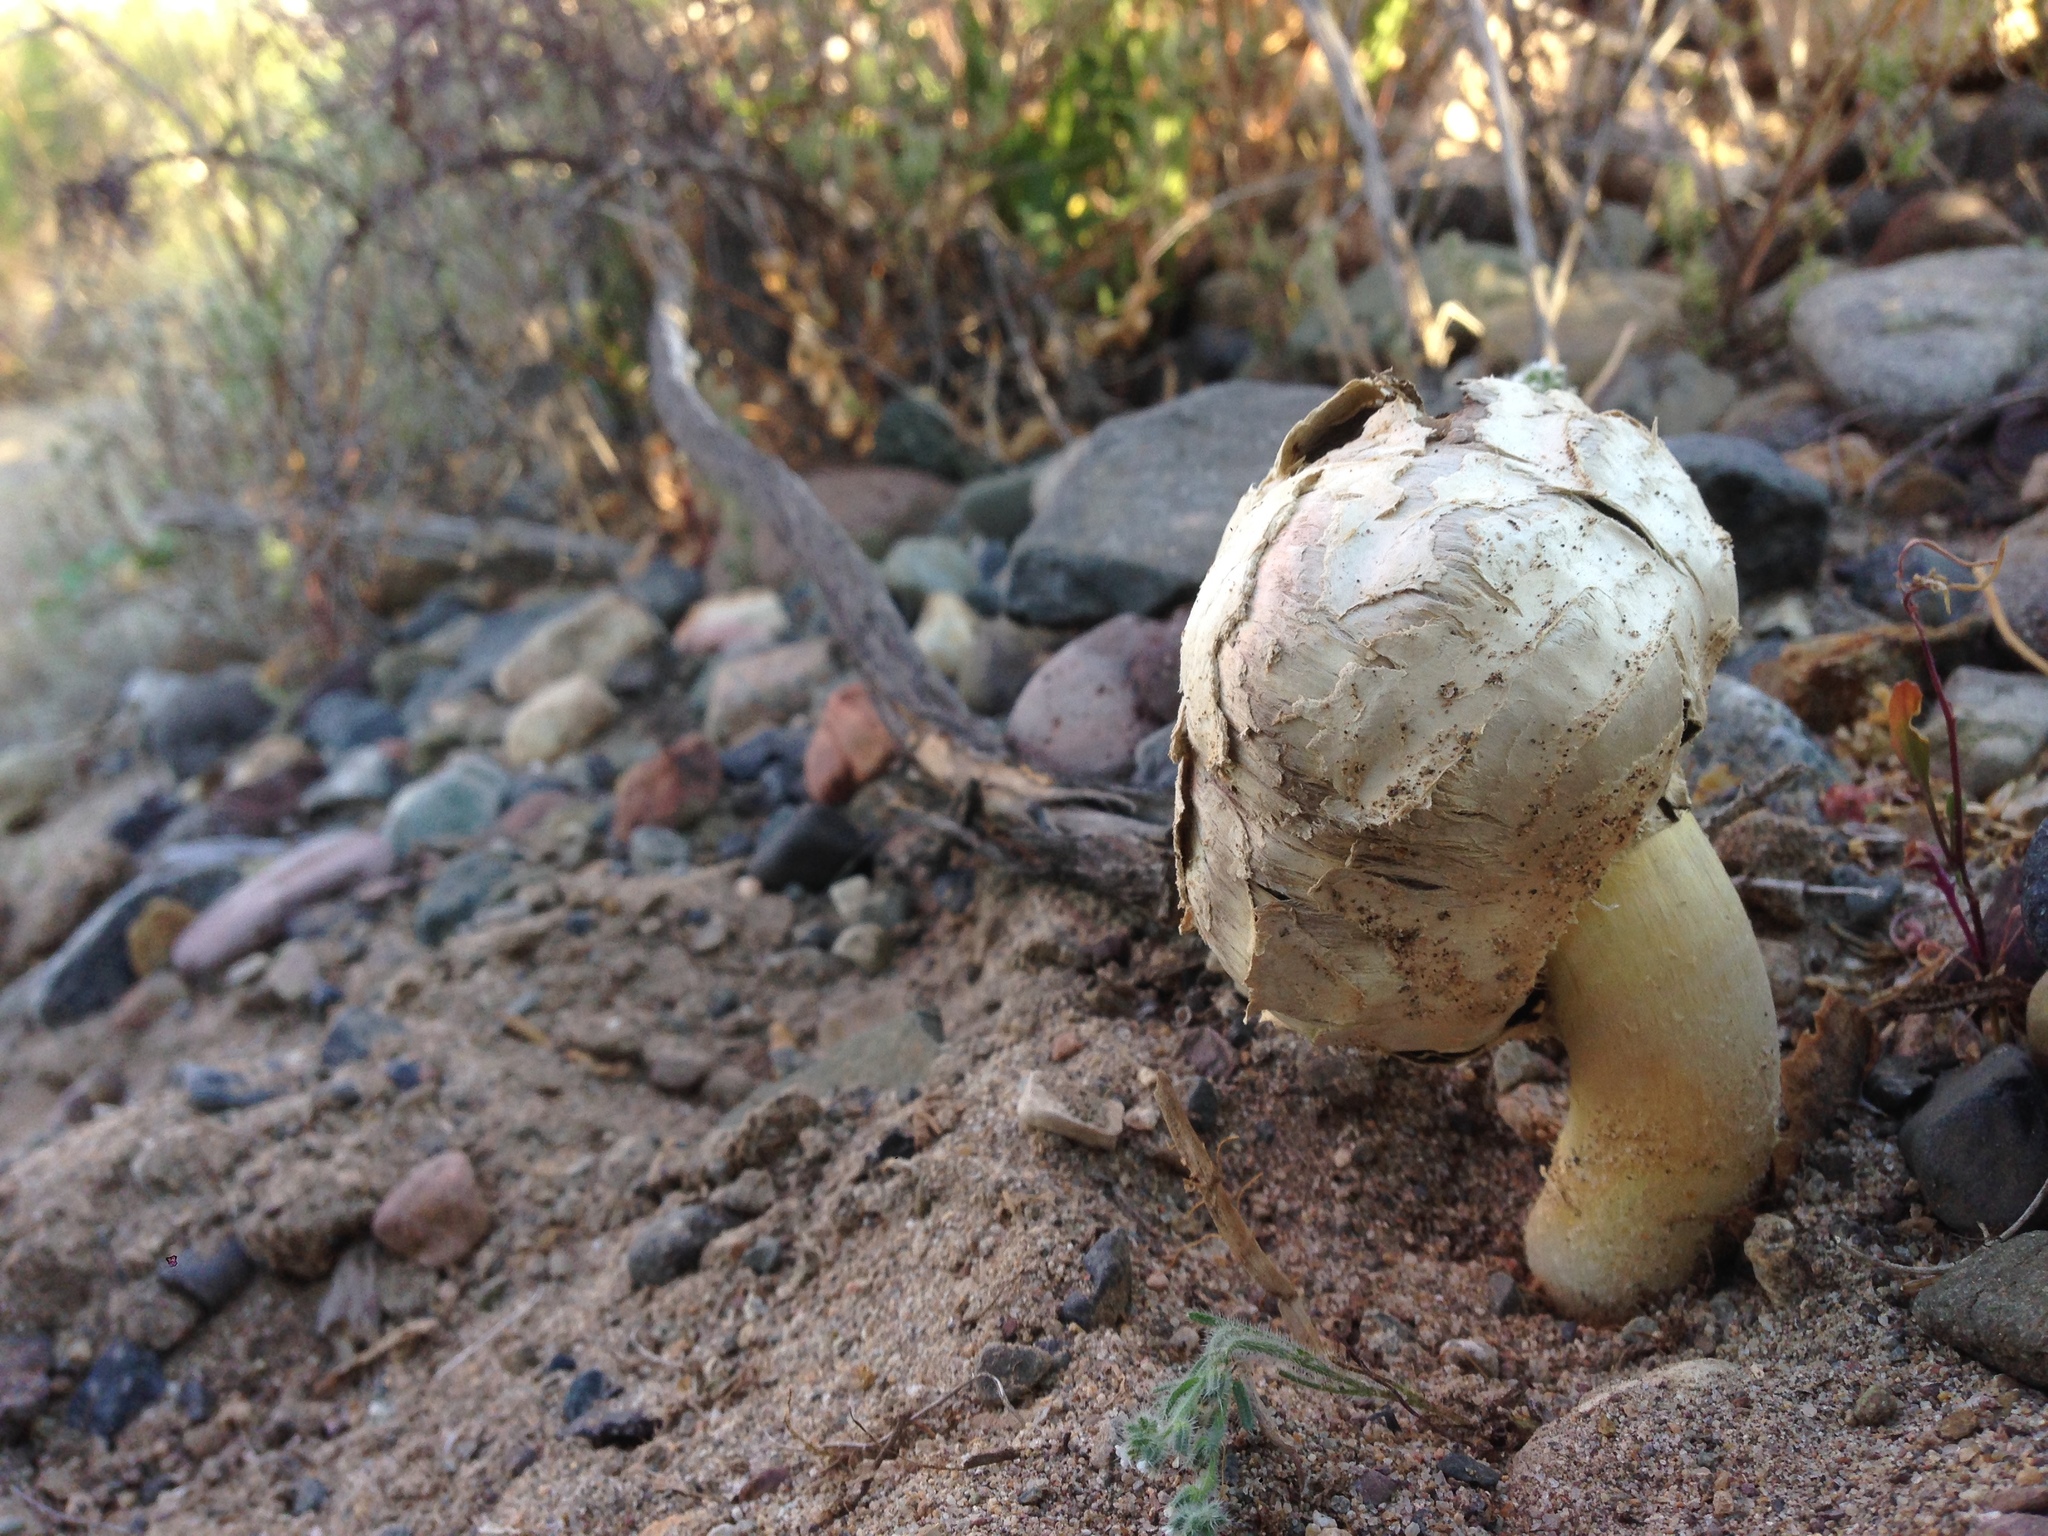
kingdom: Fungi
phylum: Basidiomycota
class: Agaricomycetes
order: Agaricales
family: Agaricaceae
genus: Agaricus
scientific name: Agaricus deserticola
